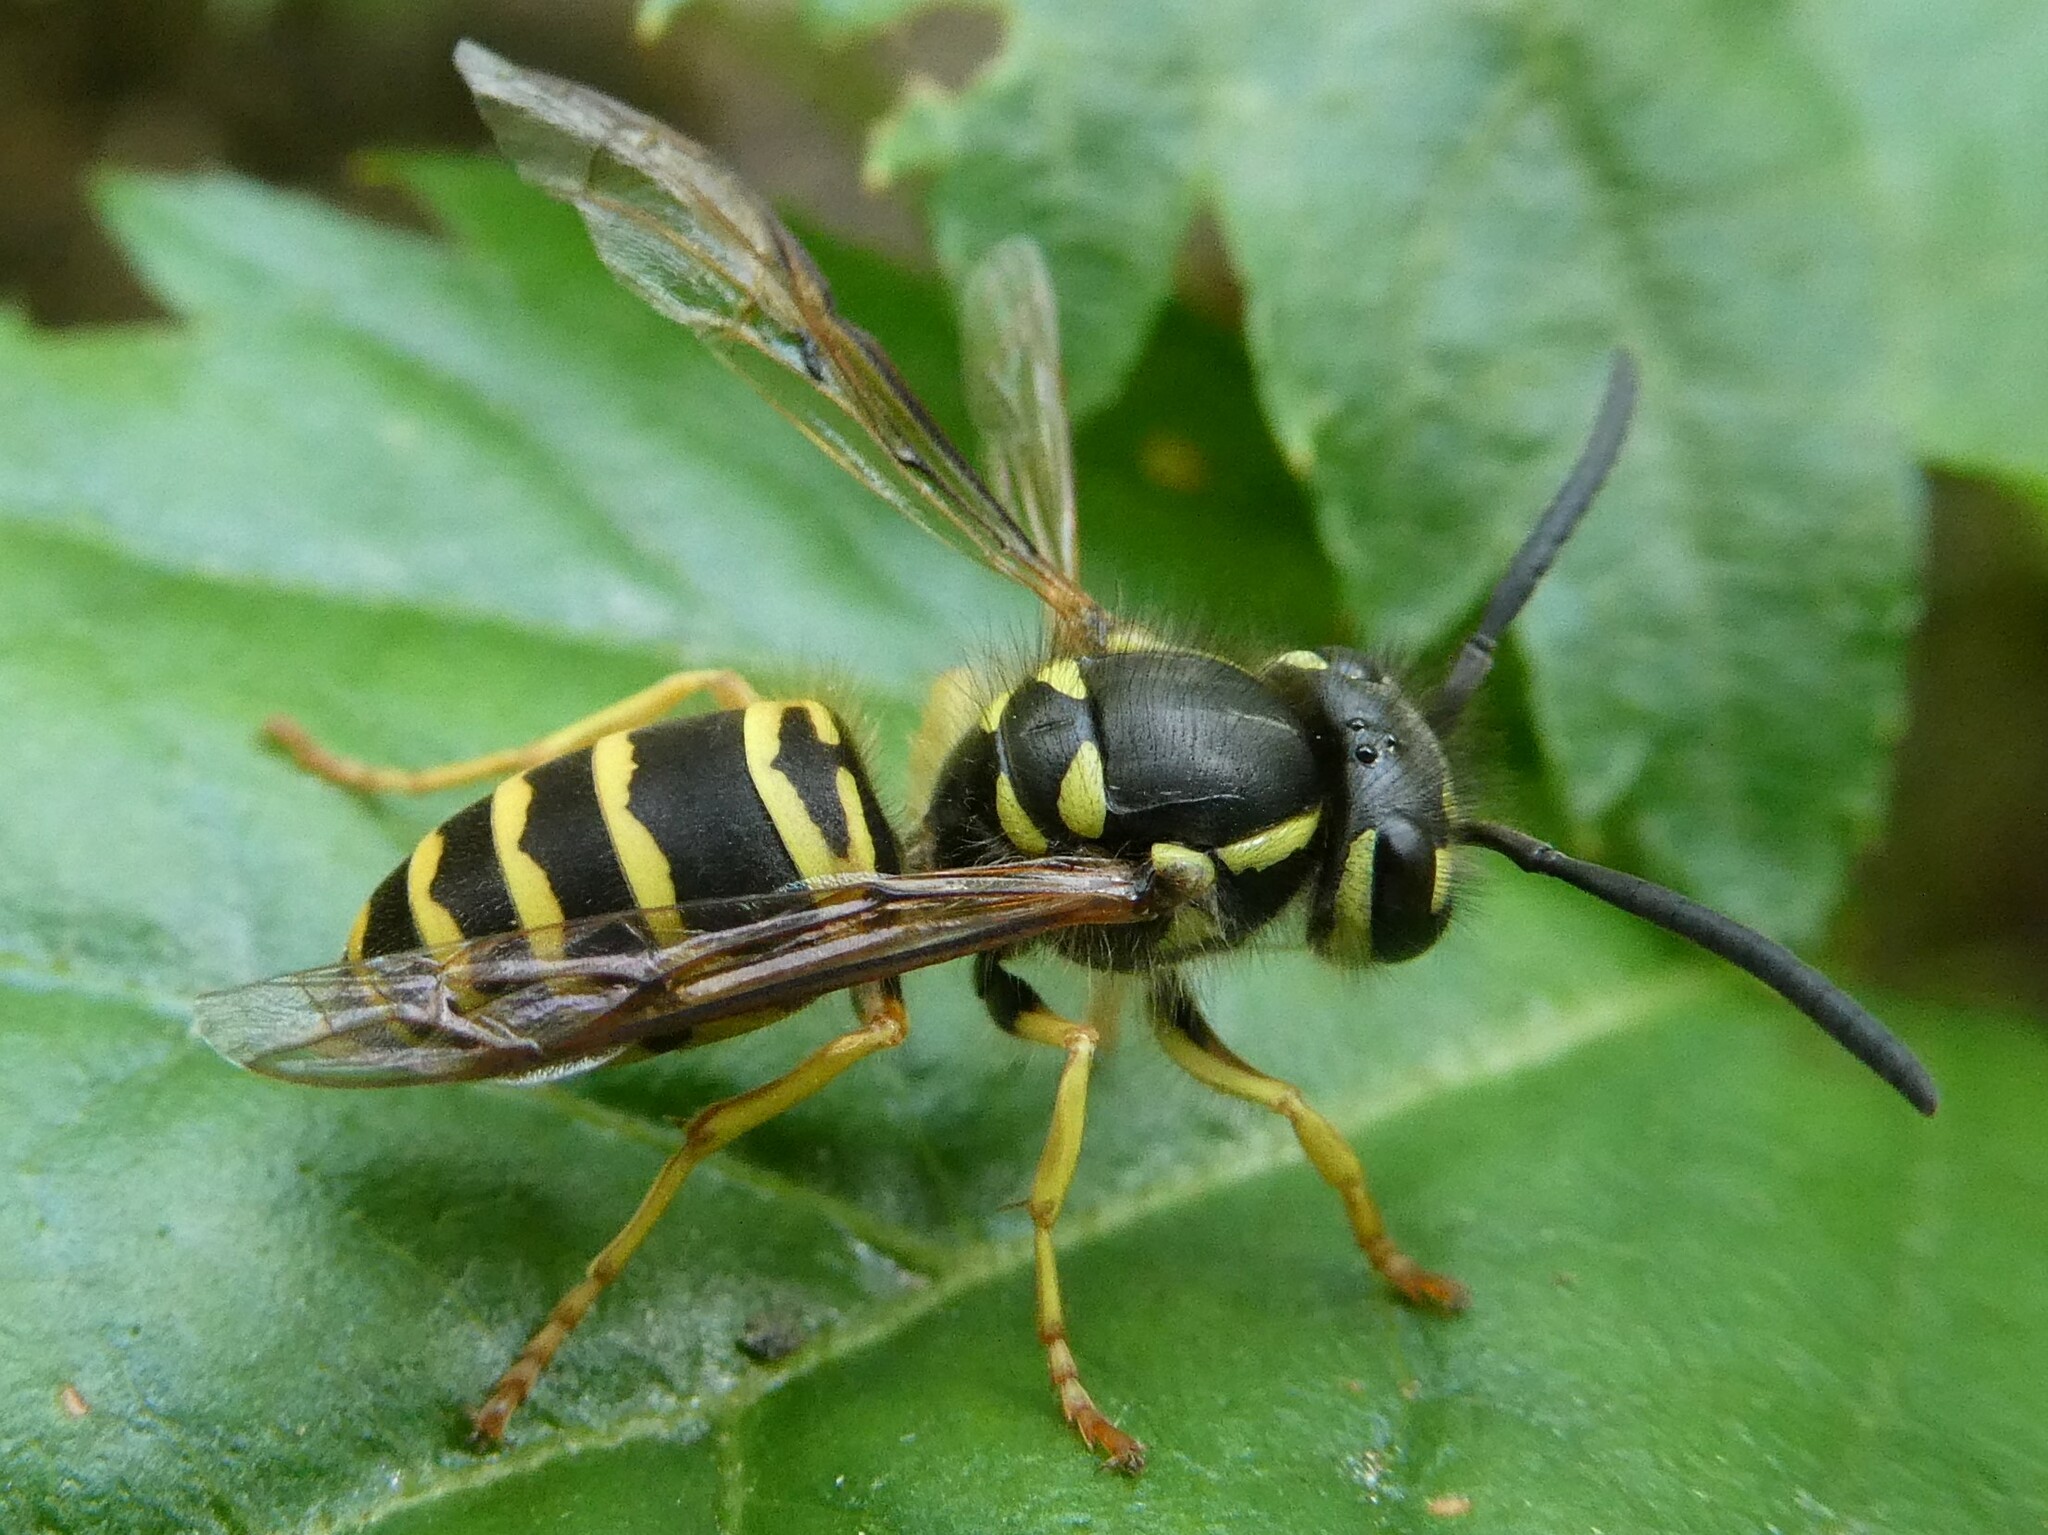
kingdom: Animalia
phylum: Arthropoda
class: Insecta
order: Hymenoptera
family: Vespidae
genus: Vespula
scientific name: Vespula maculifrons
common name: Eastern yellowjacket
